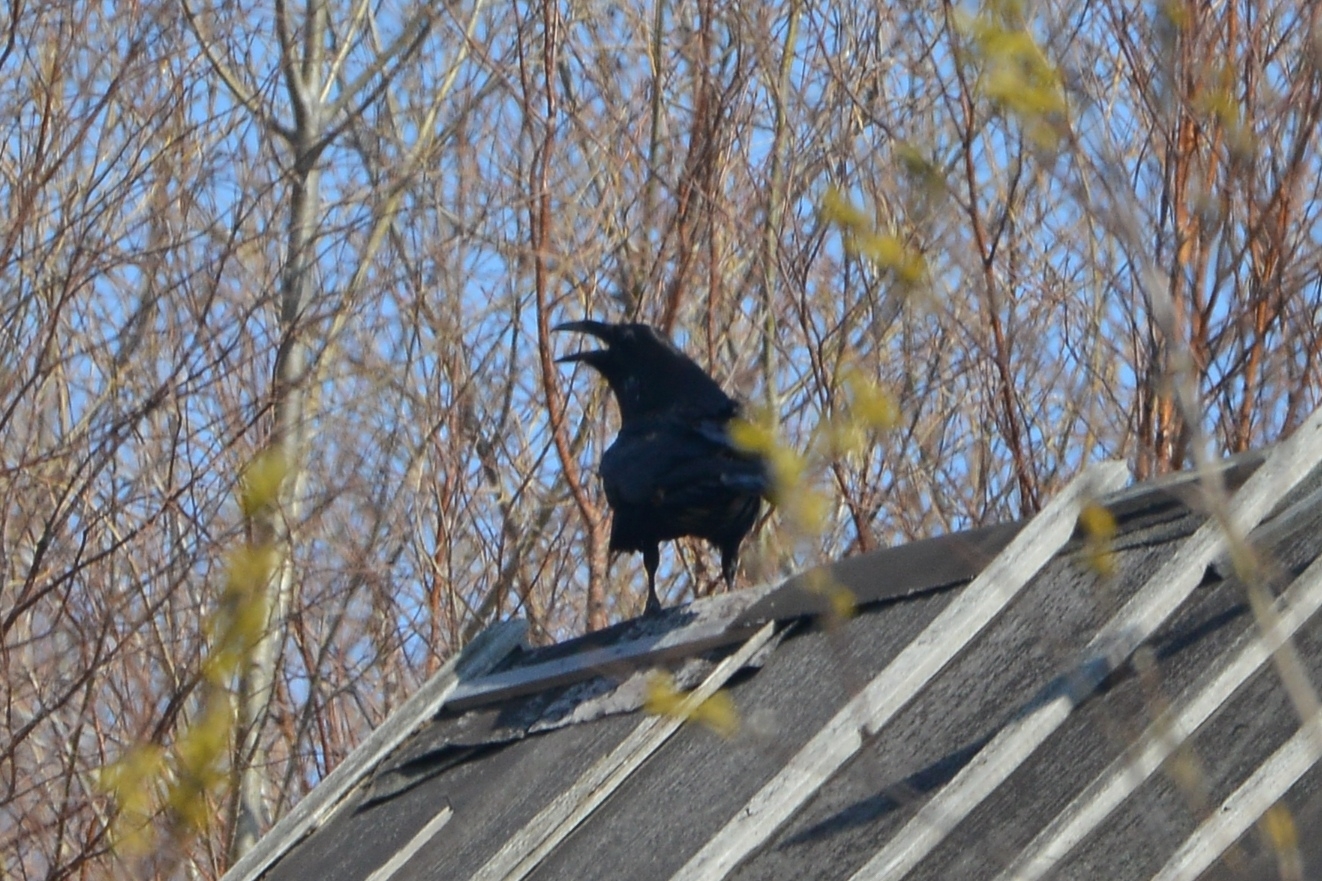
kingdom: Animalia
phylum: Chordata
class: Aves
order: Passeriformes
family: Corvidae
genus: Corvus
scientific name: Corvus corax
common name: Common raven
